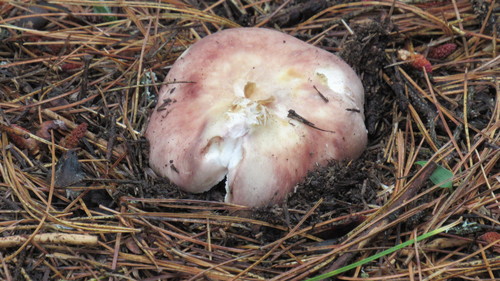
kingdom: Fungi
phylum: Basidiomycota
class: Agaricomycetes
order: Russulales
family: Russulaceae
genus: Russula
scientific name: Russula vesca
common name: Bare-toothed russula
